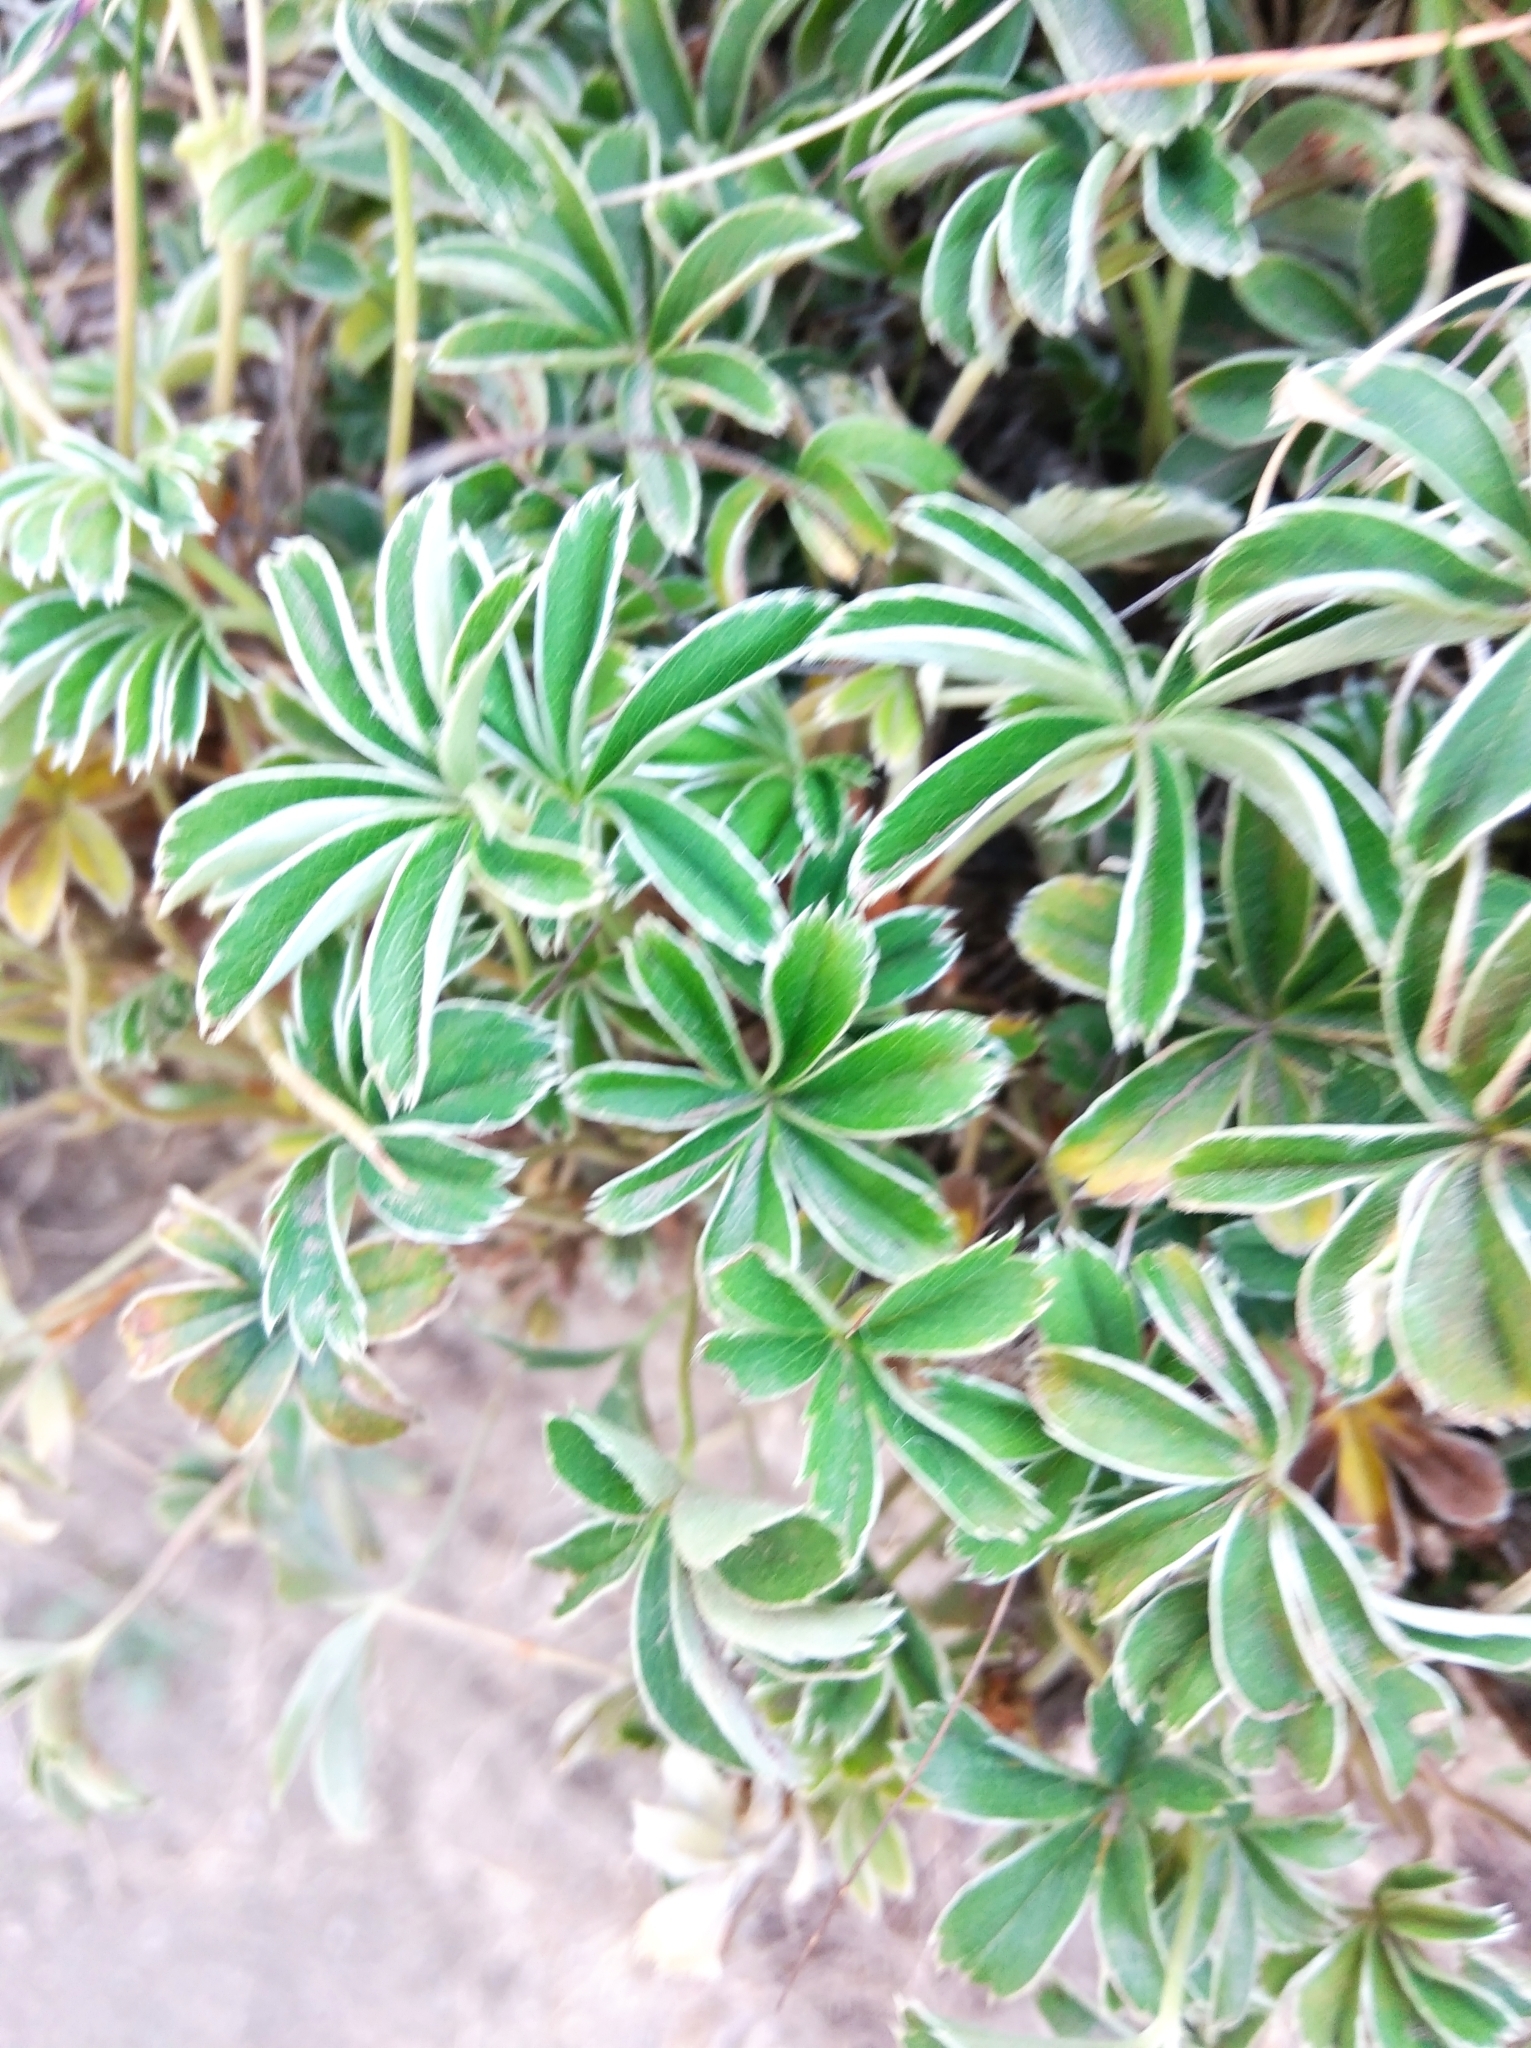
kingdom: Plantae
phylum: Tracheophyta
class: Magnoliopsida
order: Rosales
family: Rosaceae
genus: Alchemilla
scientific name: Alchemilla alpina
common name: Alpine lady's-mantle
